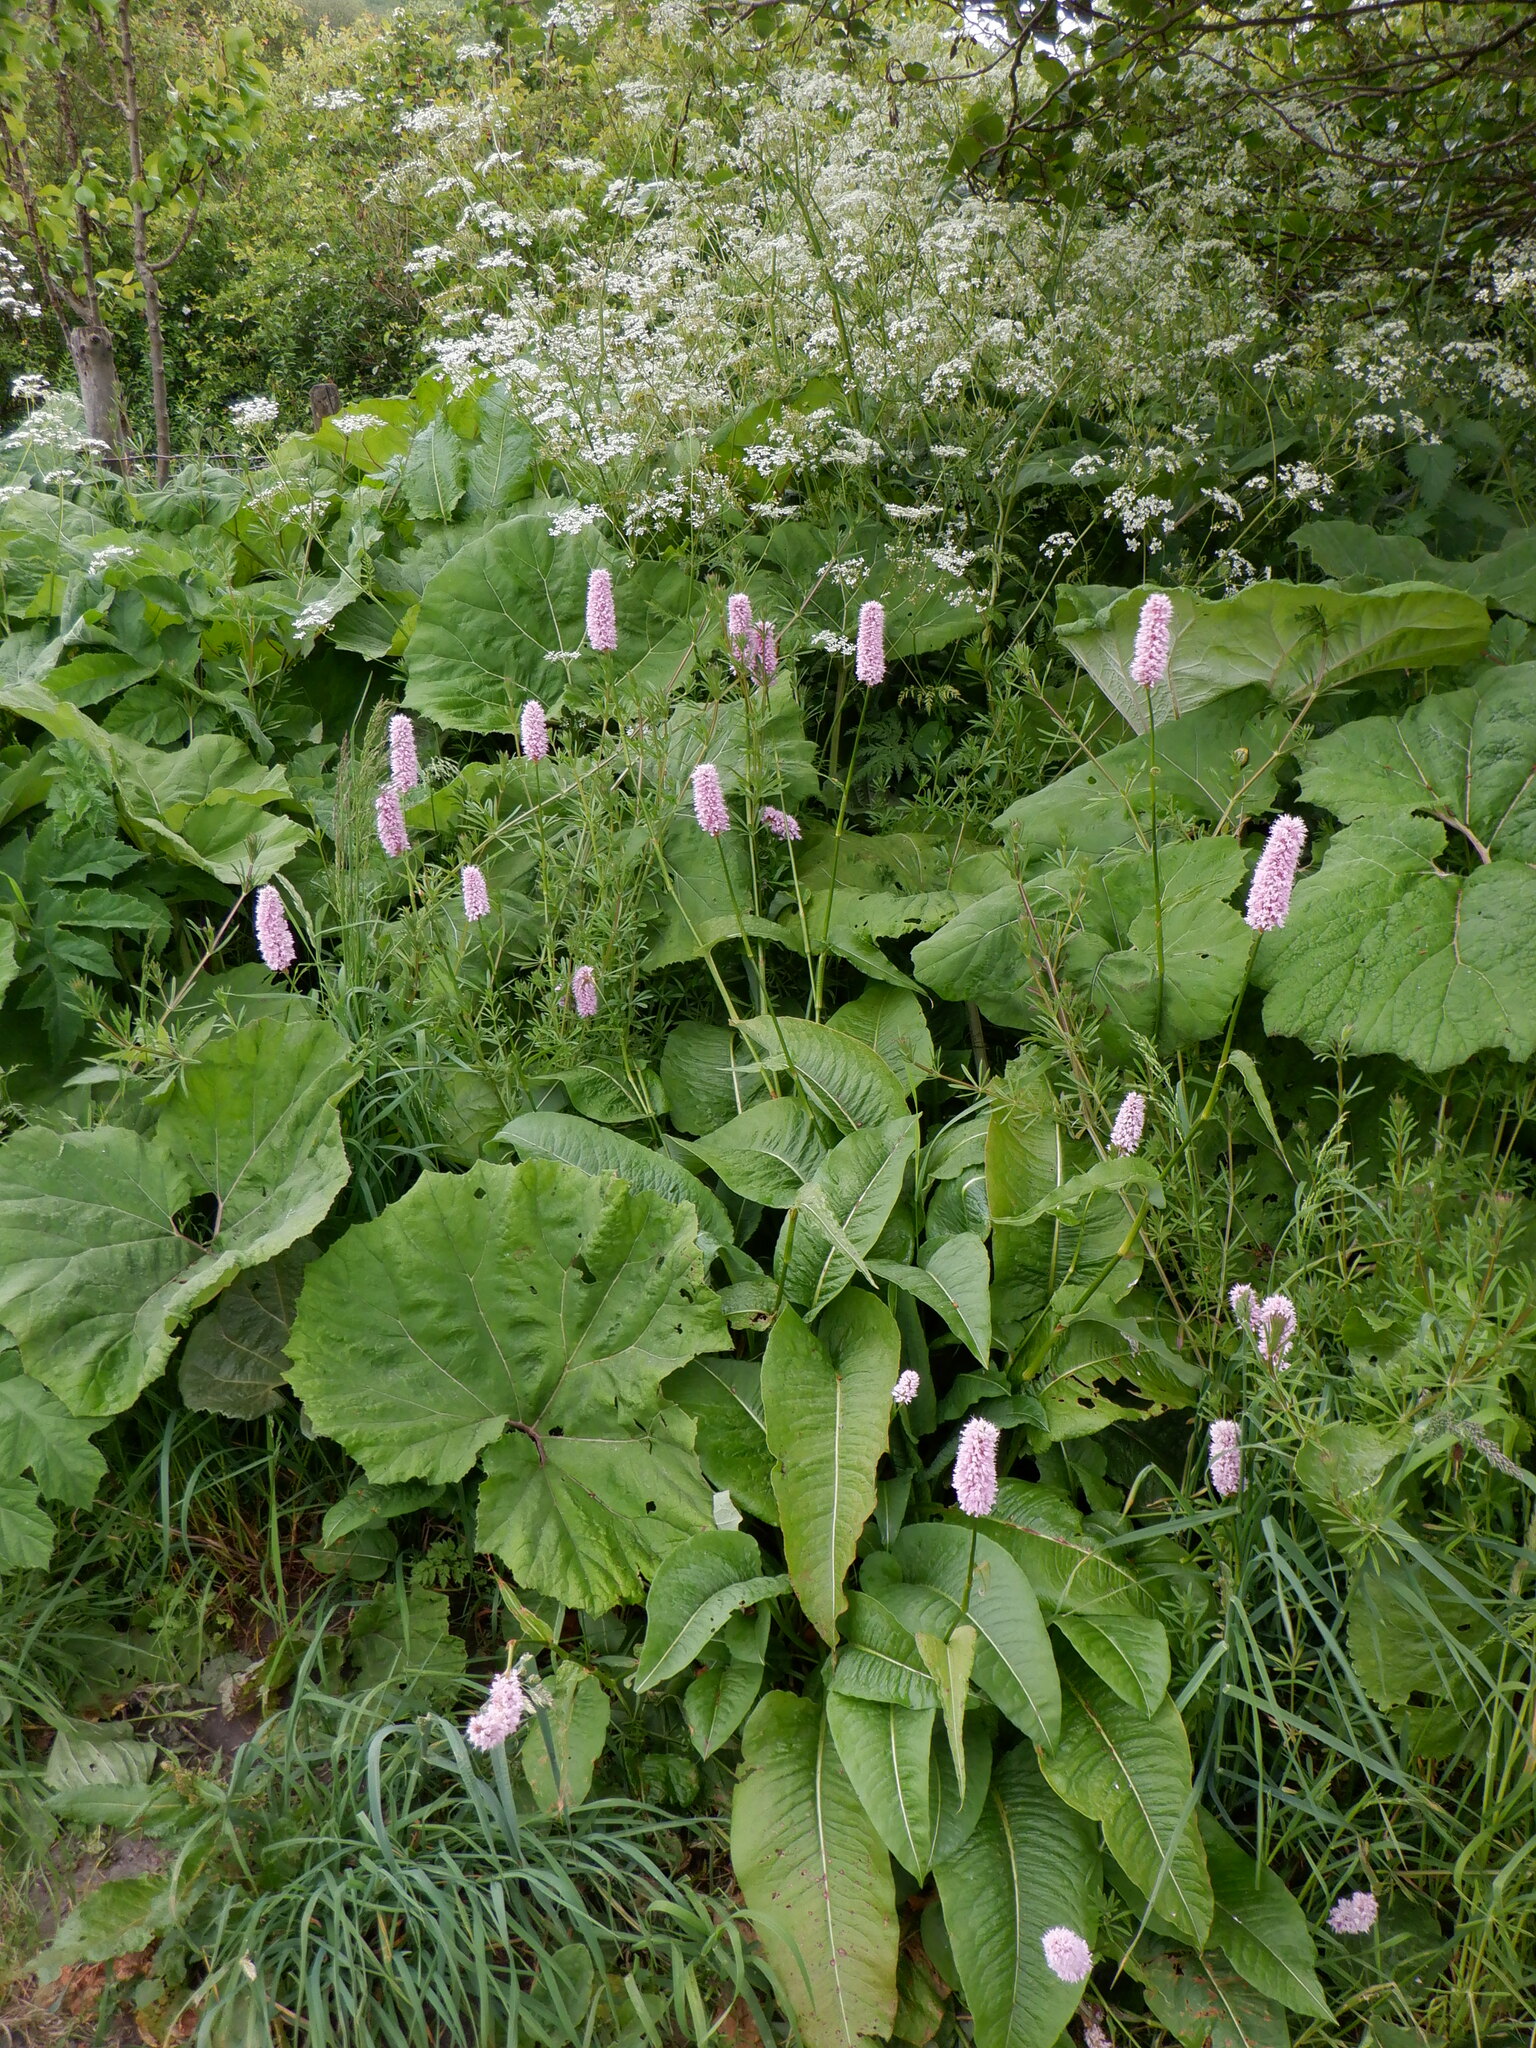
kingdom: Plantae
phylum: Tracheophyta
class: Magnoliopsida
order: Caryophyllales
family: Polygonaceae
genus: Bistorta
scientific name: Bistorta officinalis
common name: Common bistort
